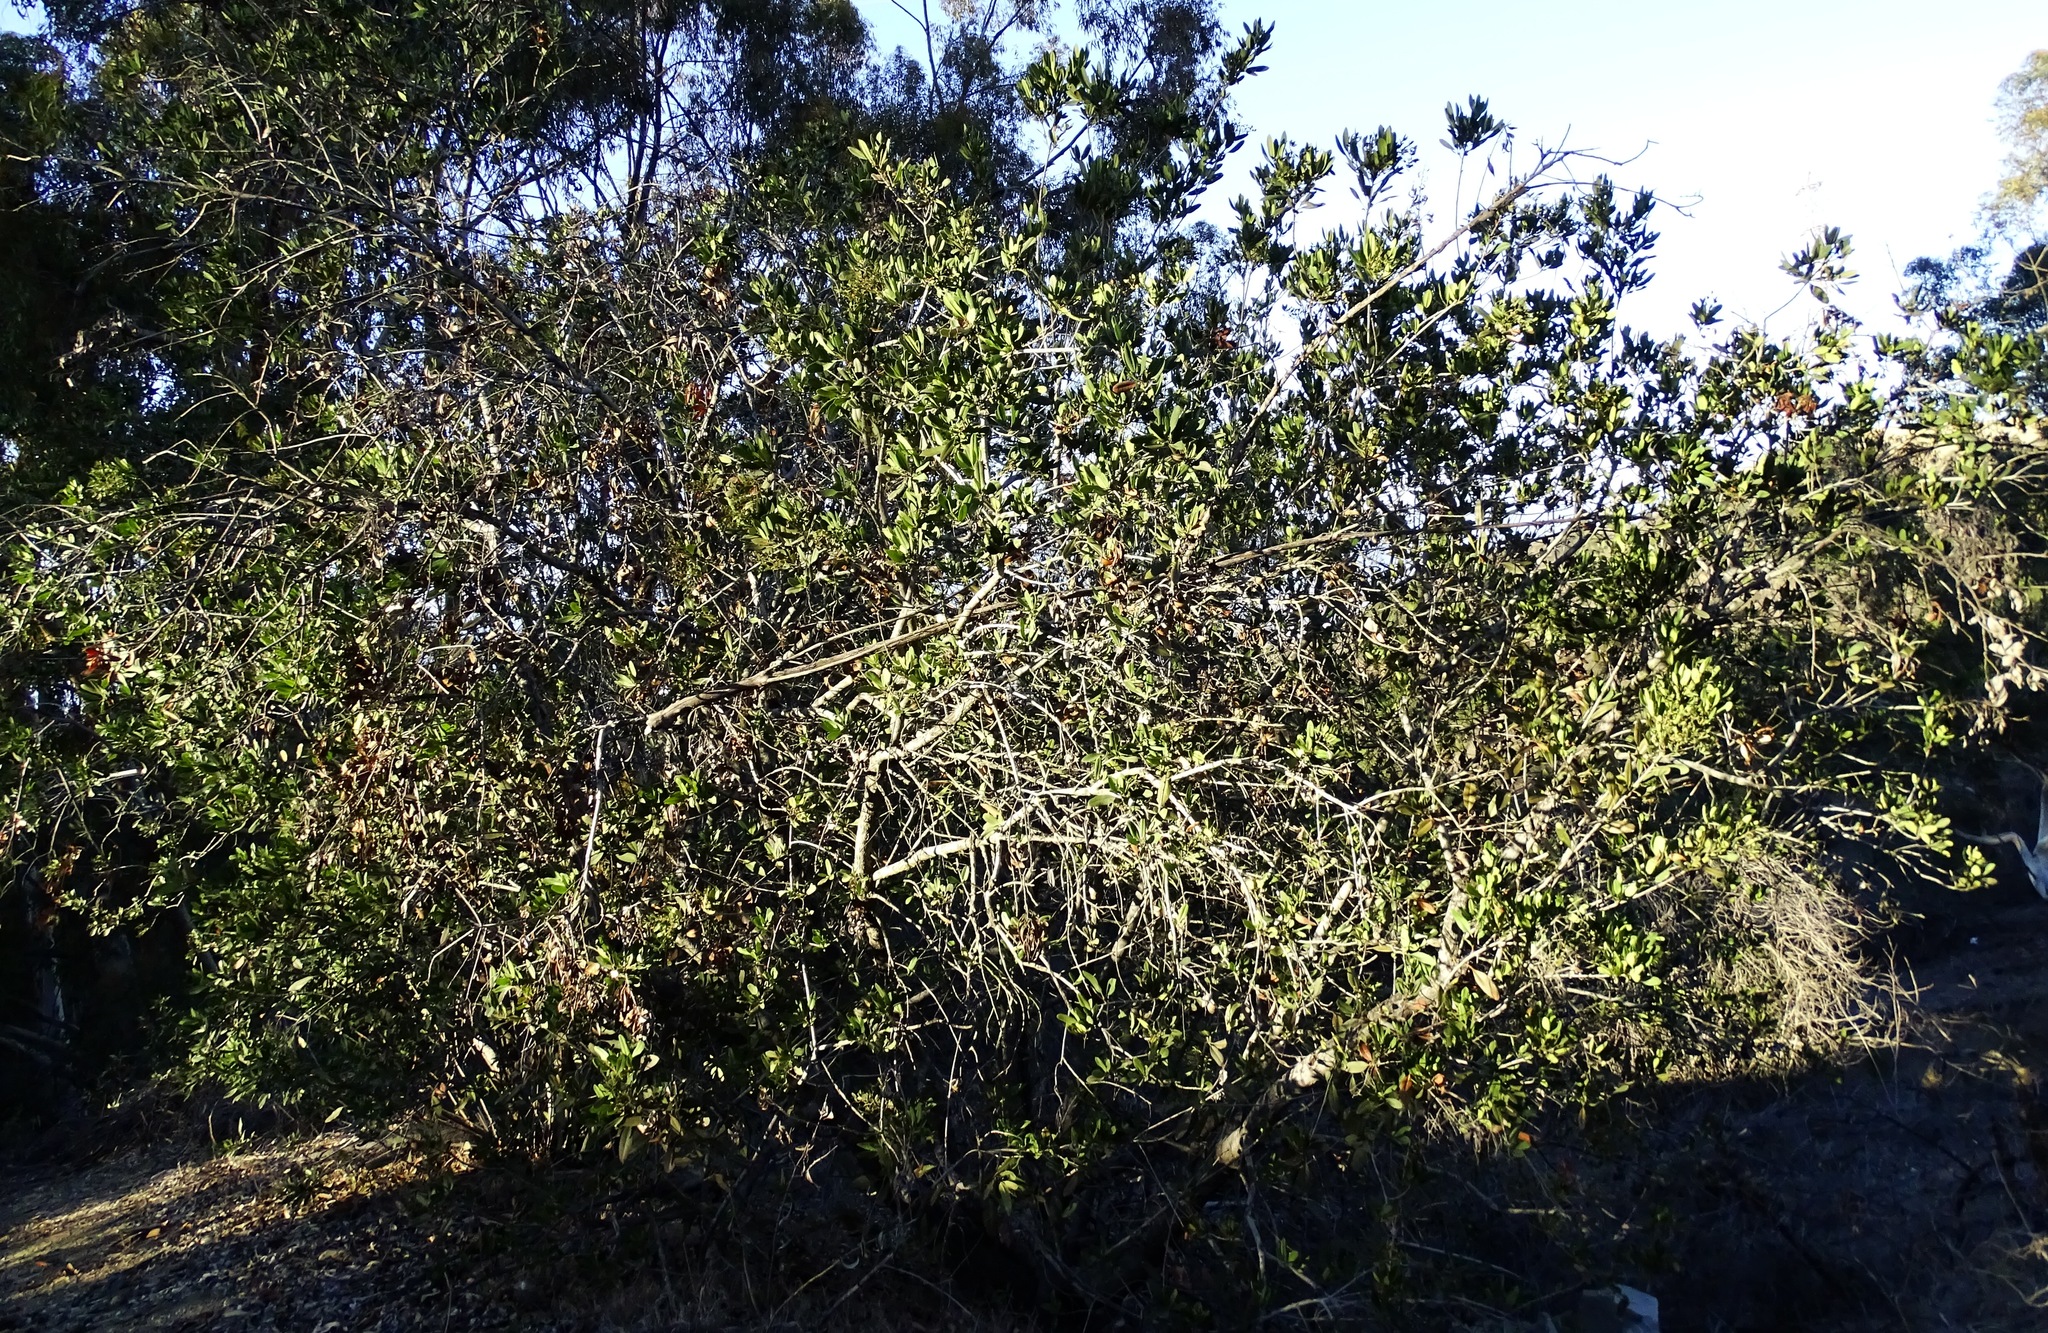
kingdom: Plantae
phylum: Tracheophyta
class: Magnoliopsida
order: Rosales
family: Rosaceae
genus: Heteromeles
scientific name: Heteromeles arbutifolia
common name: California-holly
